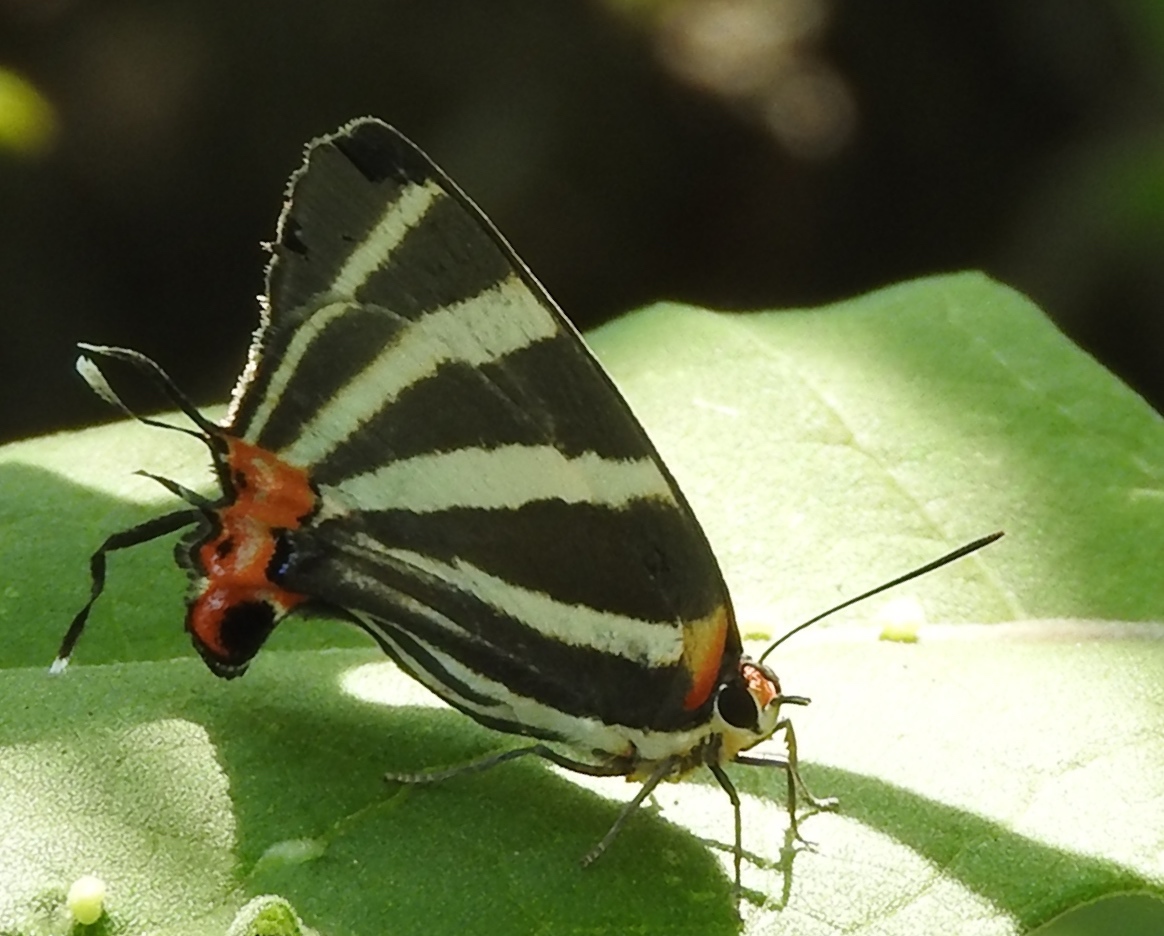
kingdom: Animalia
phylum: Arthropoda
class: Insecta
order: Lepidoptera
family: Lycaenidae
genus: Thecla
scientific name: Thecla bathildis
